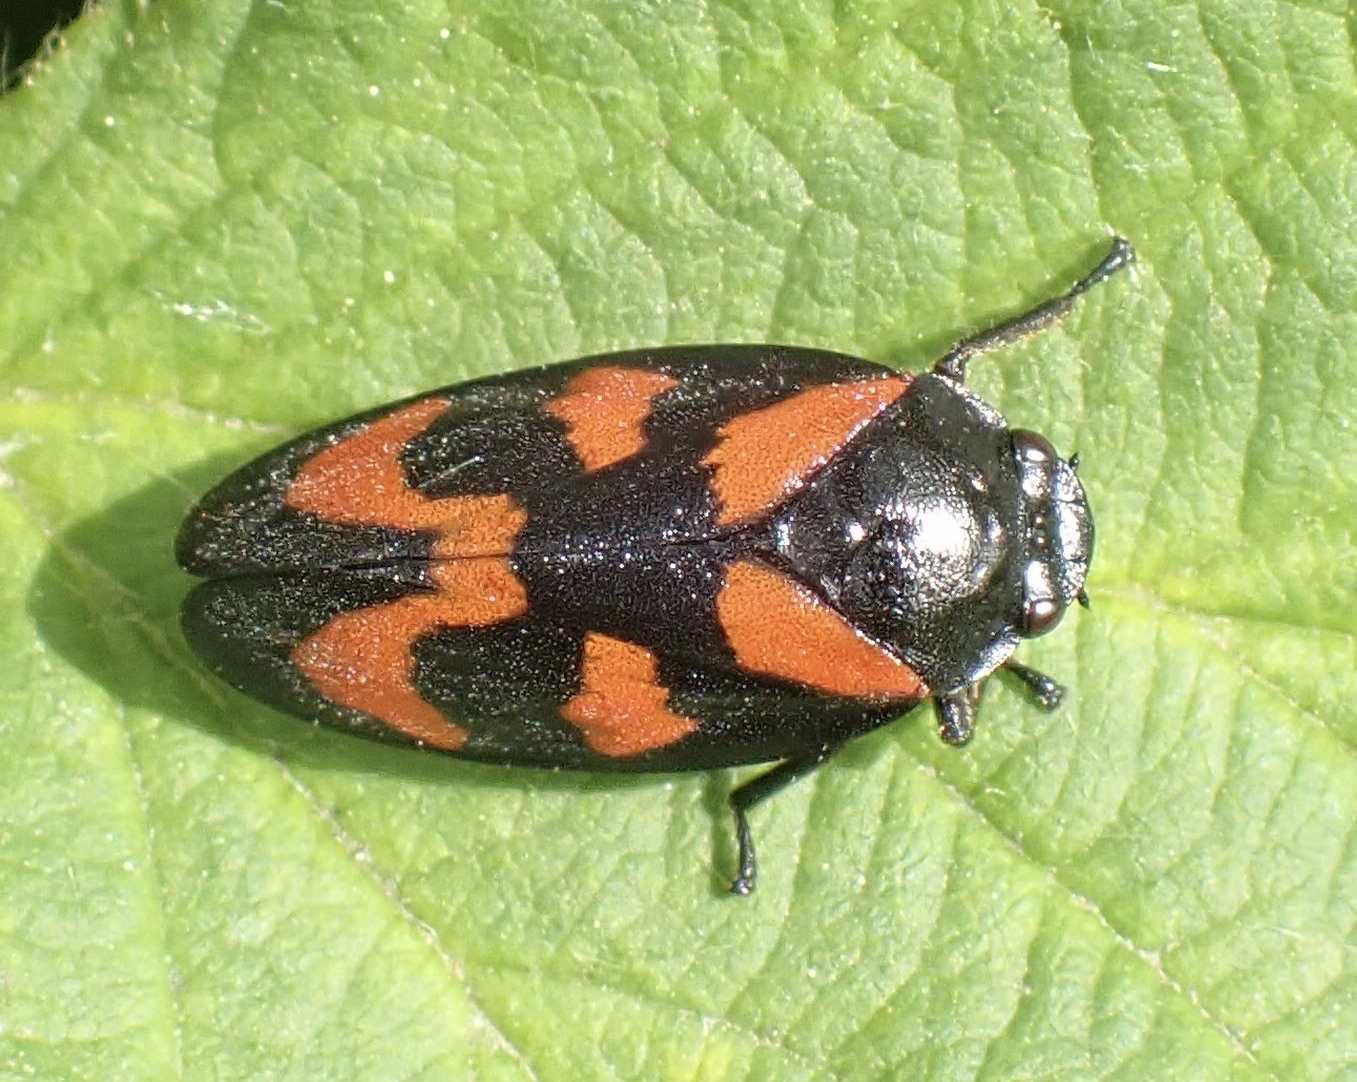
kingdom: Animalia
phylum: Arthropoda
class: Insecta
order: Hemiptera
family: Cercopidae
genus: Cercopis
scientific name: Cercopis vulnerata
